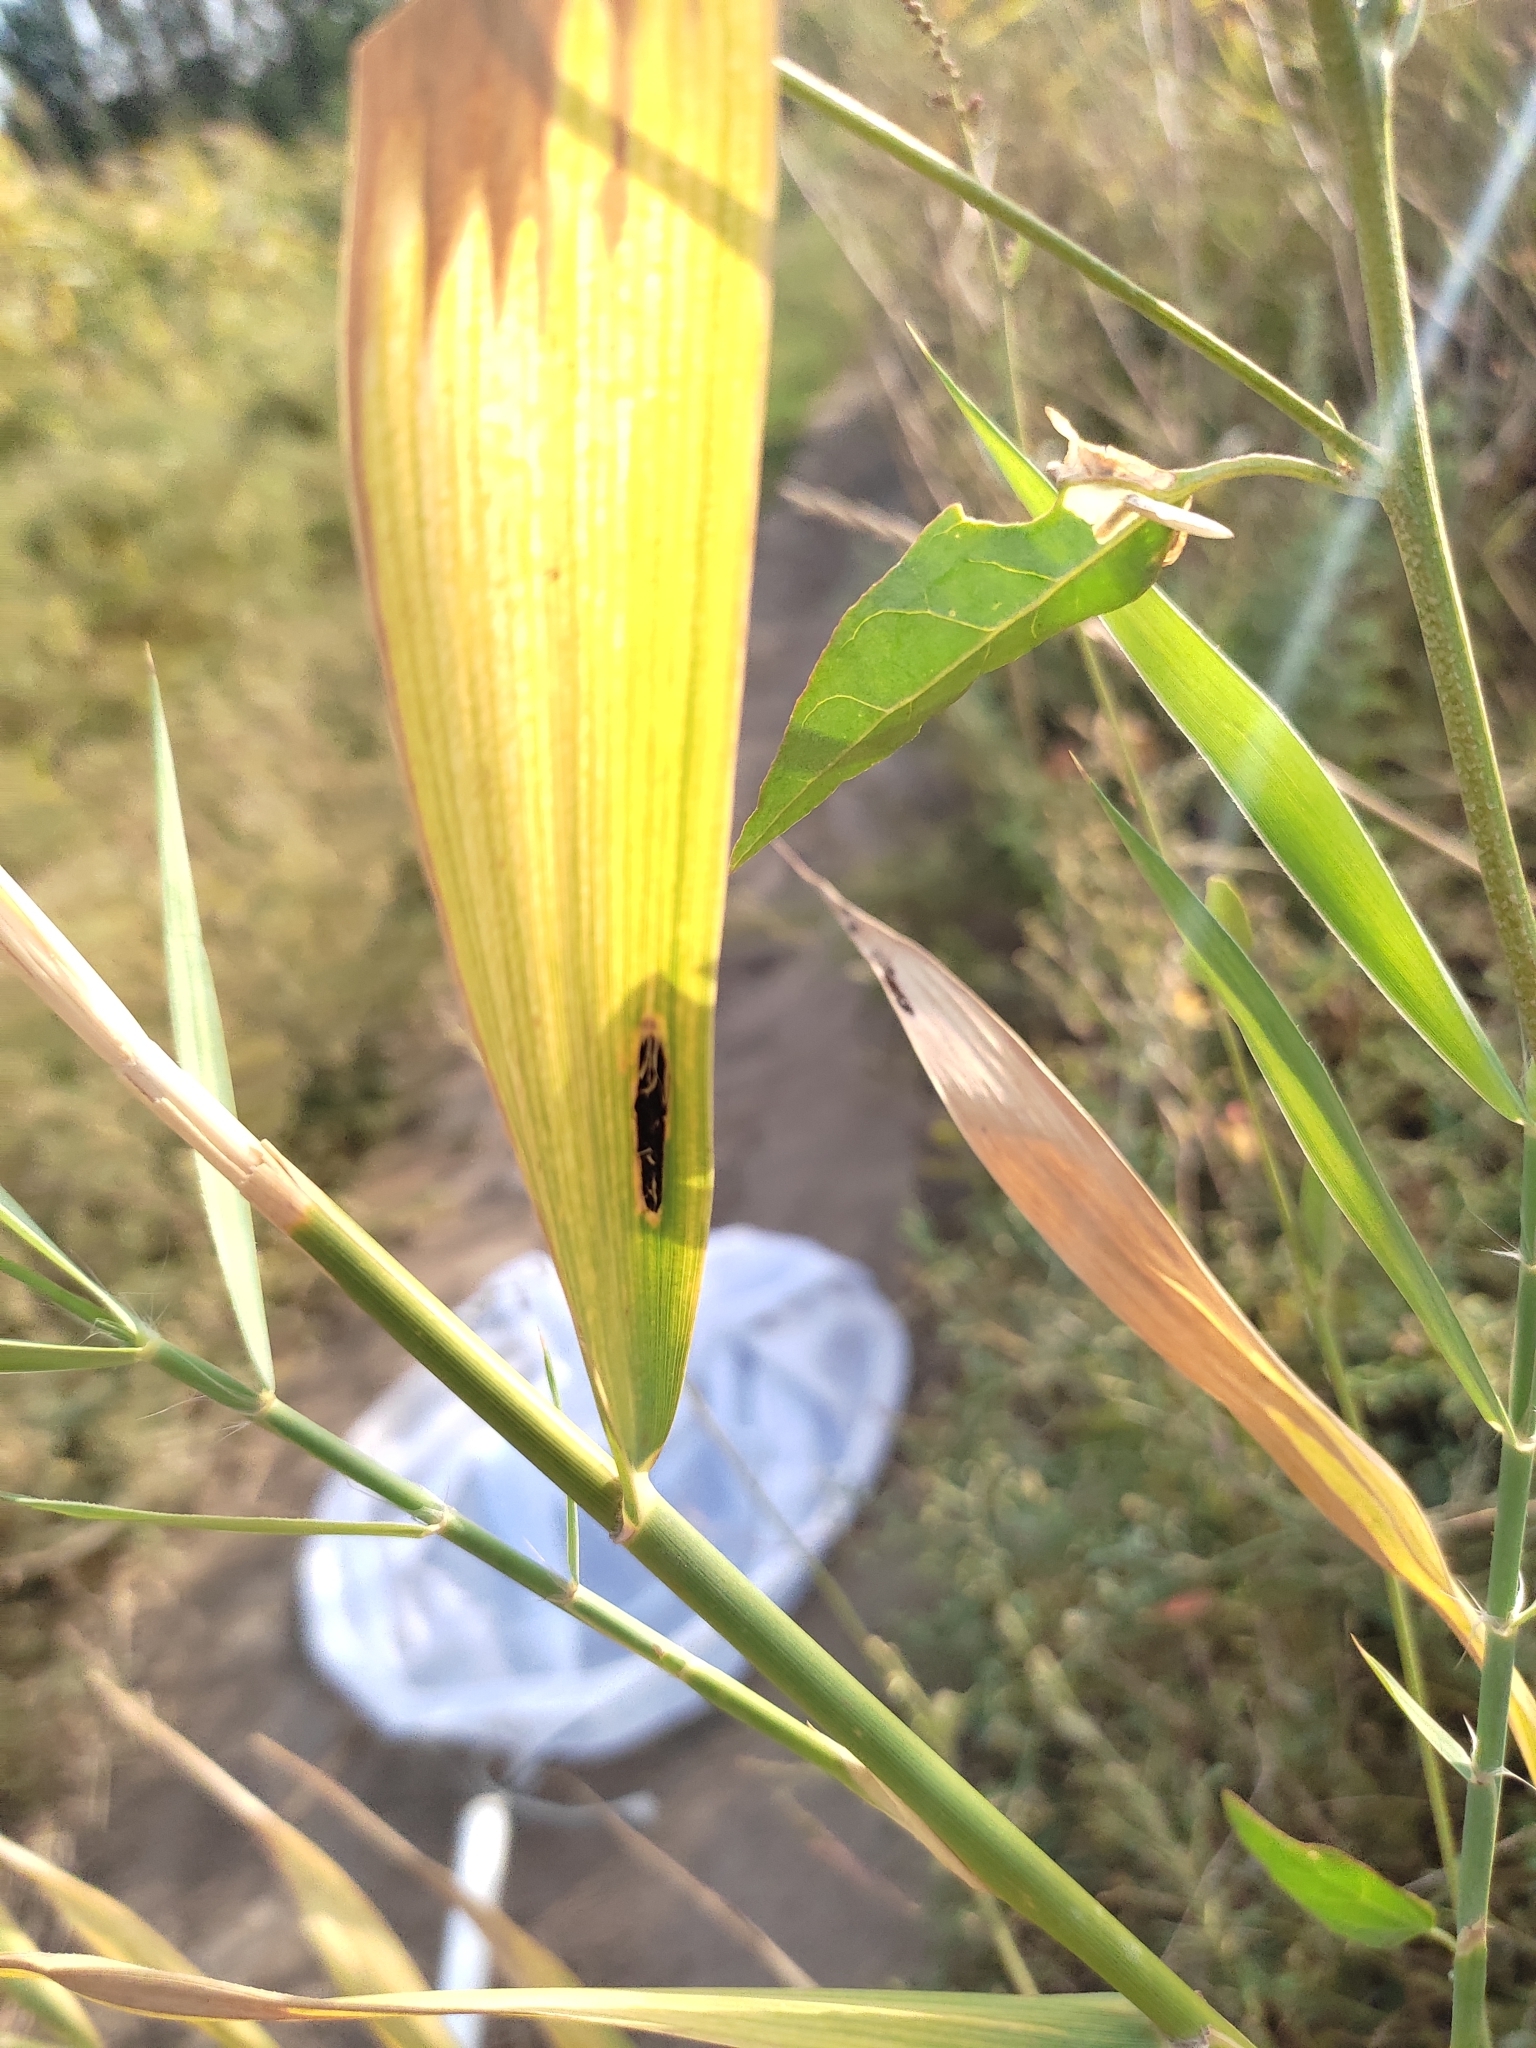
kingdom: Fungi
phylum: Basidiomycota
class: Pucciniomycetes
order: Pucciniales
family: Pucciniaceae
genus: Puccinia
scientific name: Puccinia
